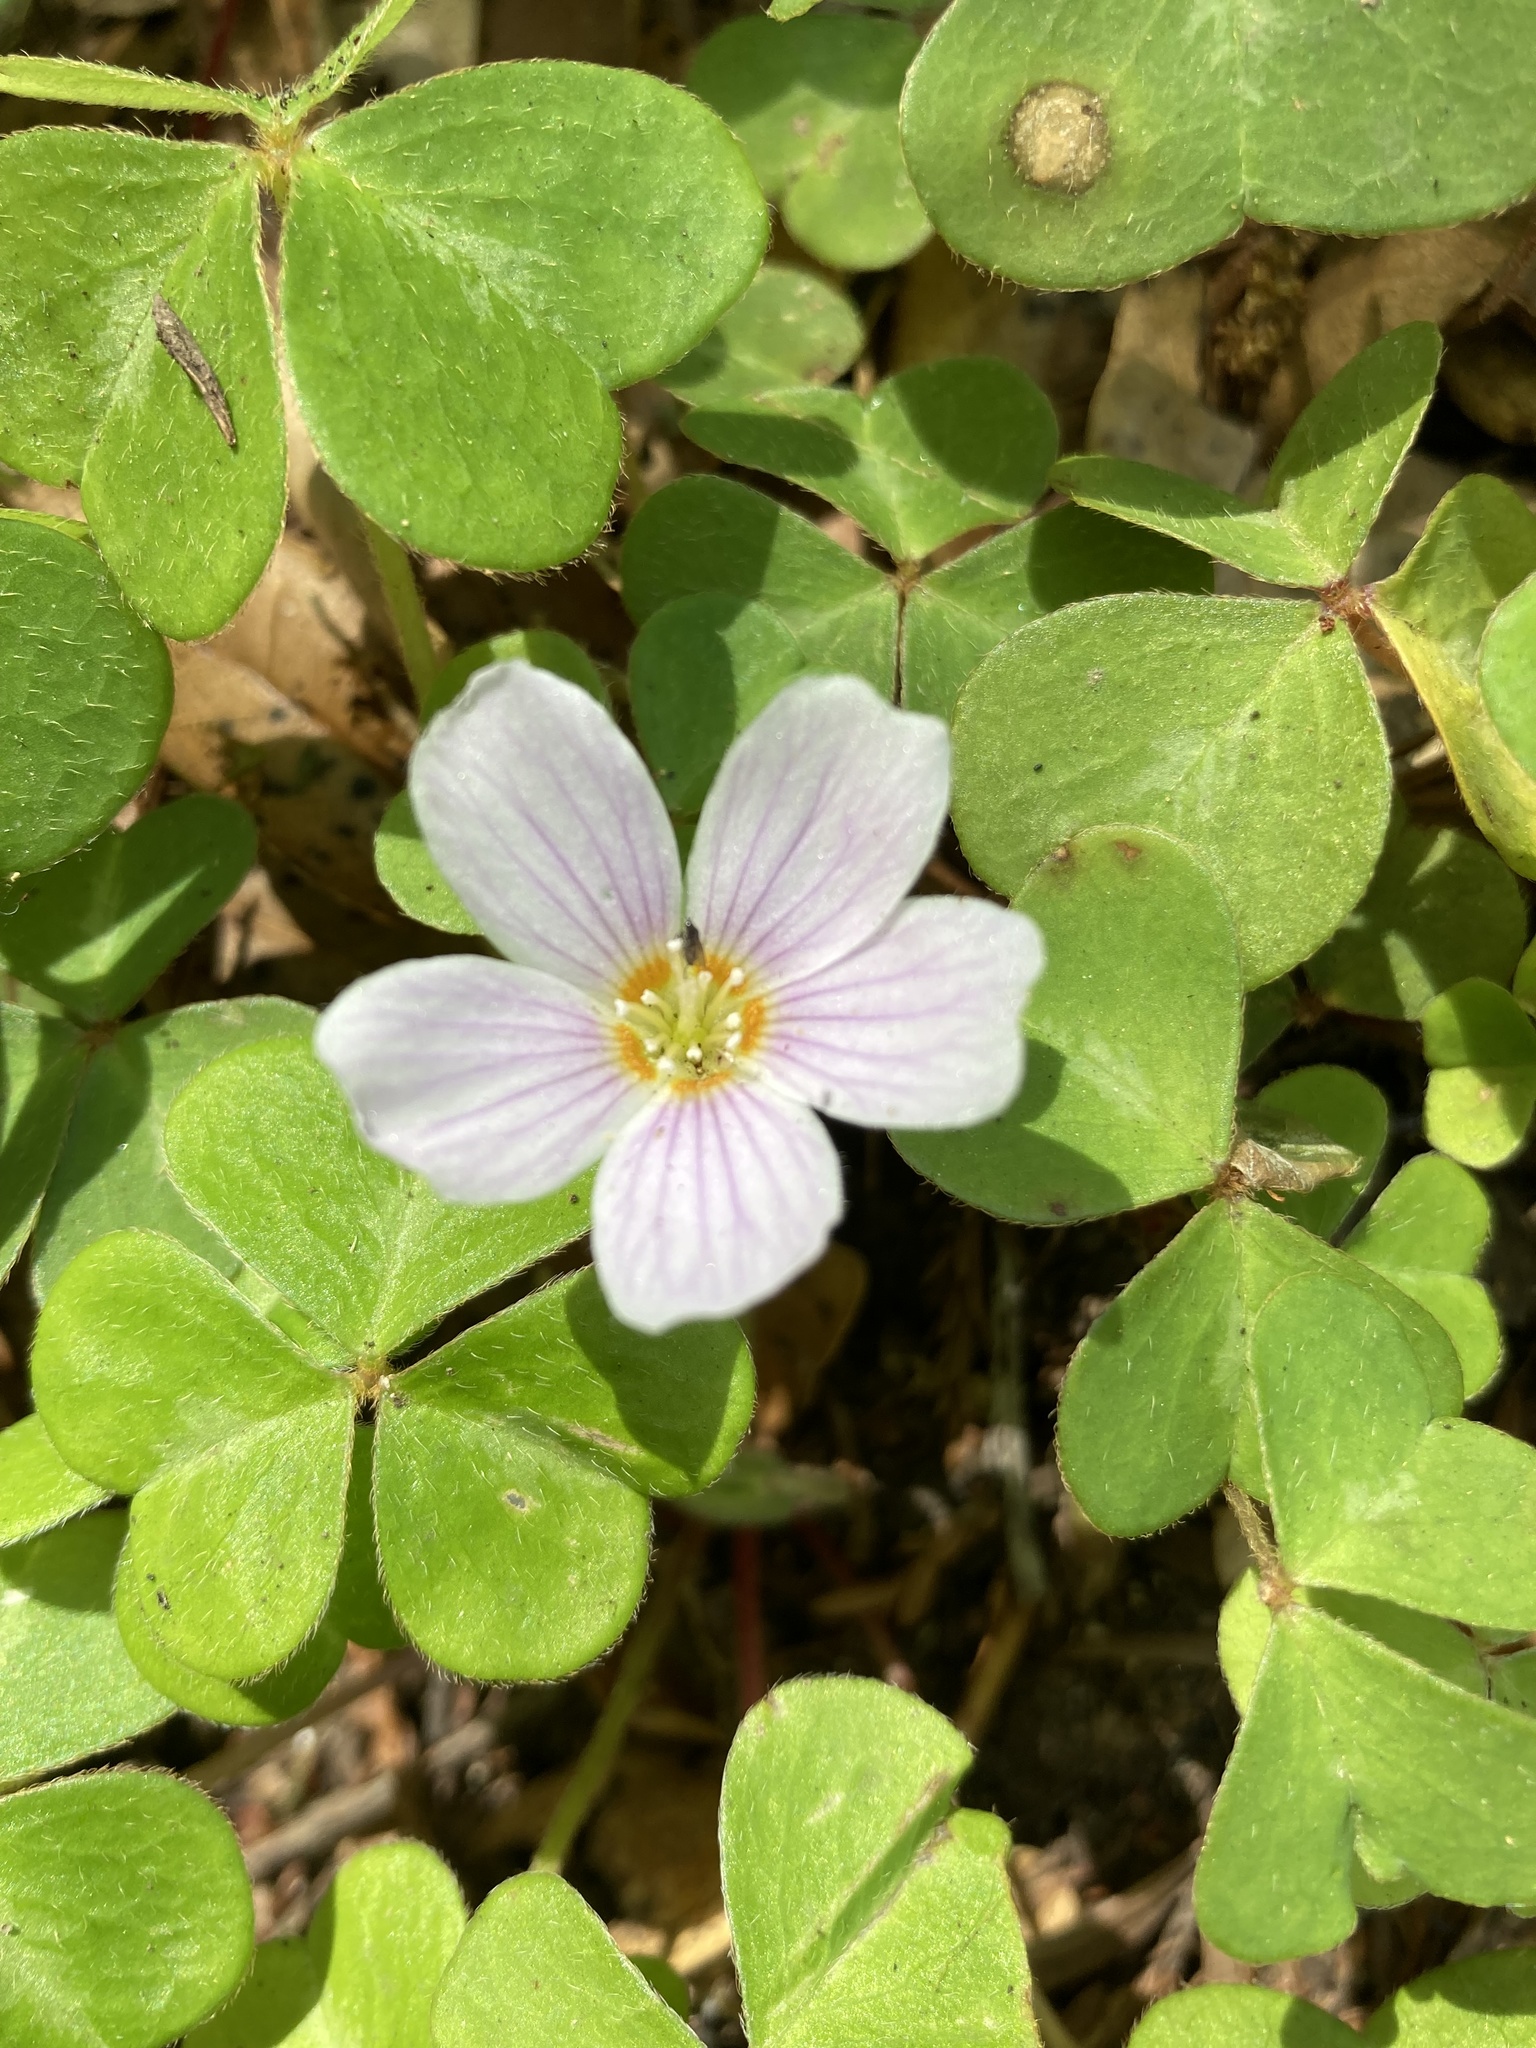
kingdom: Plantae
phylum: Tracheophyta
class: Magnoliopsida
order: Oxalidales
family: Oxalidaceae
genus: Oxalis
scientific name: Oxalis oregana
